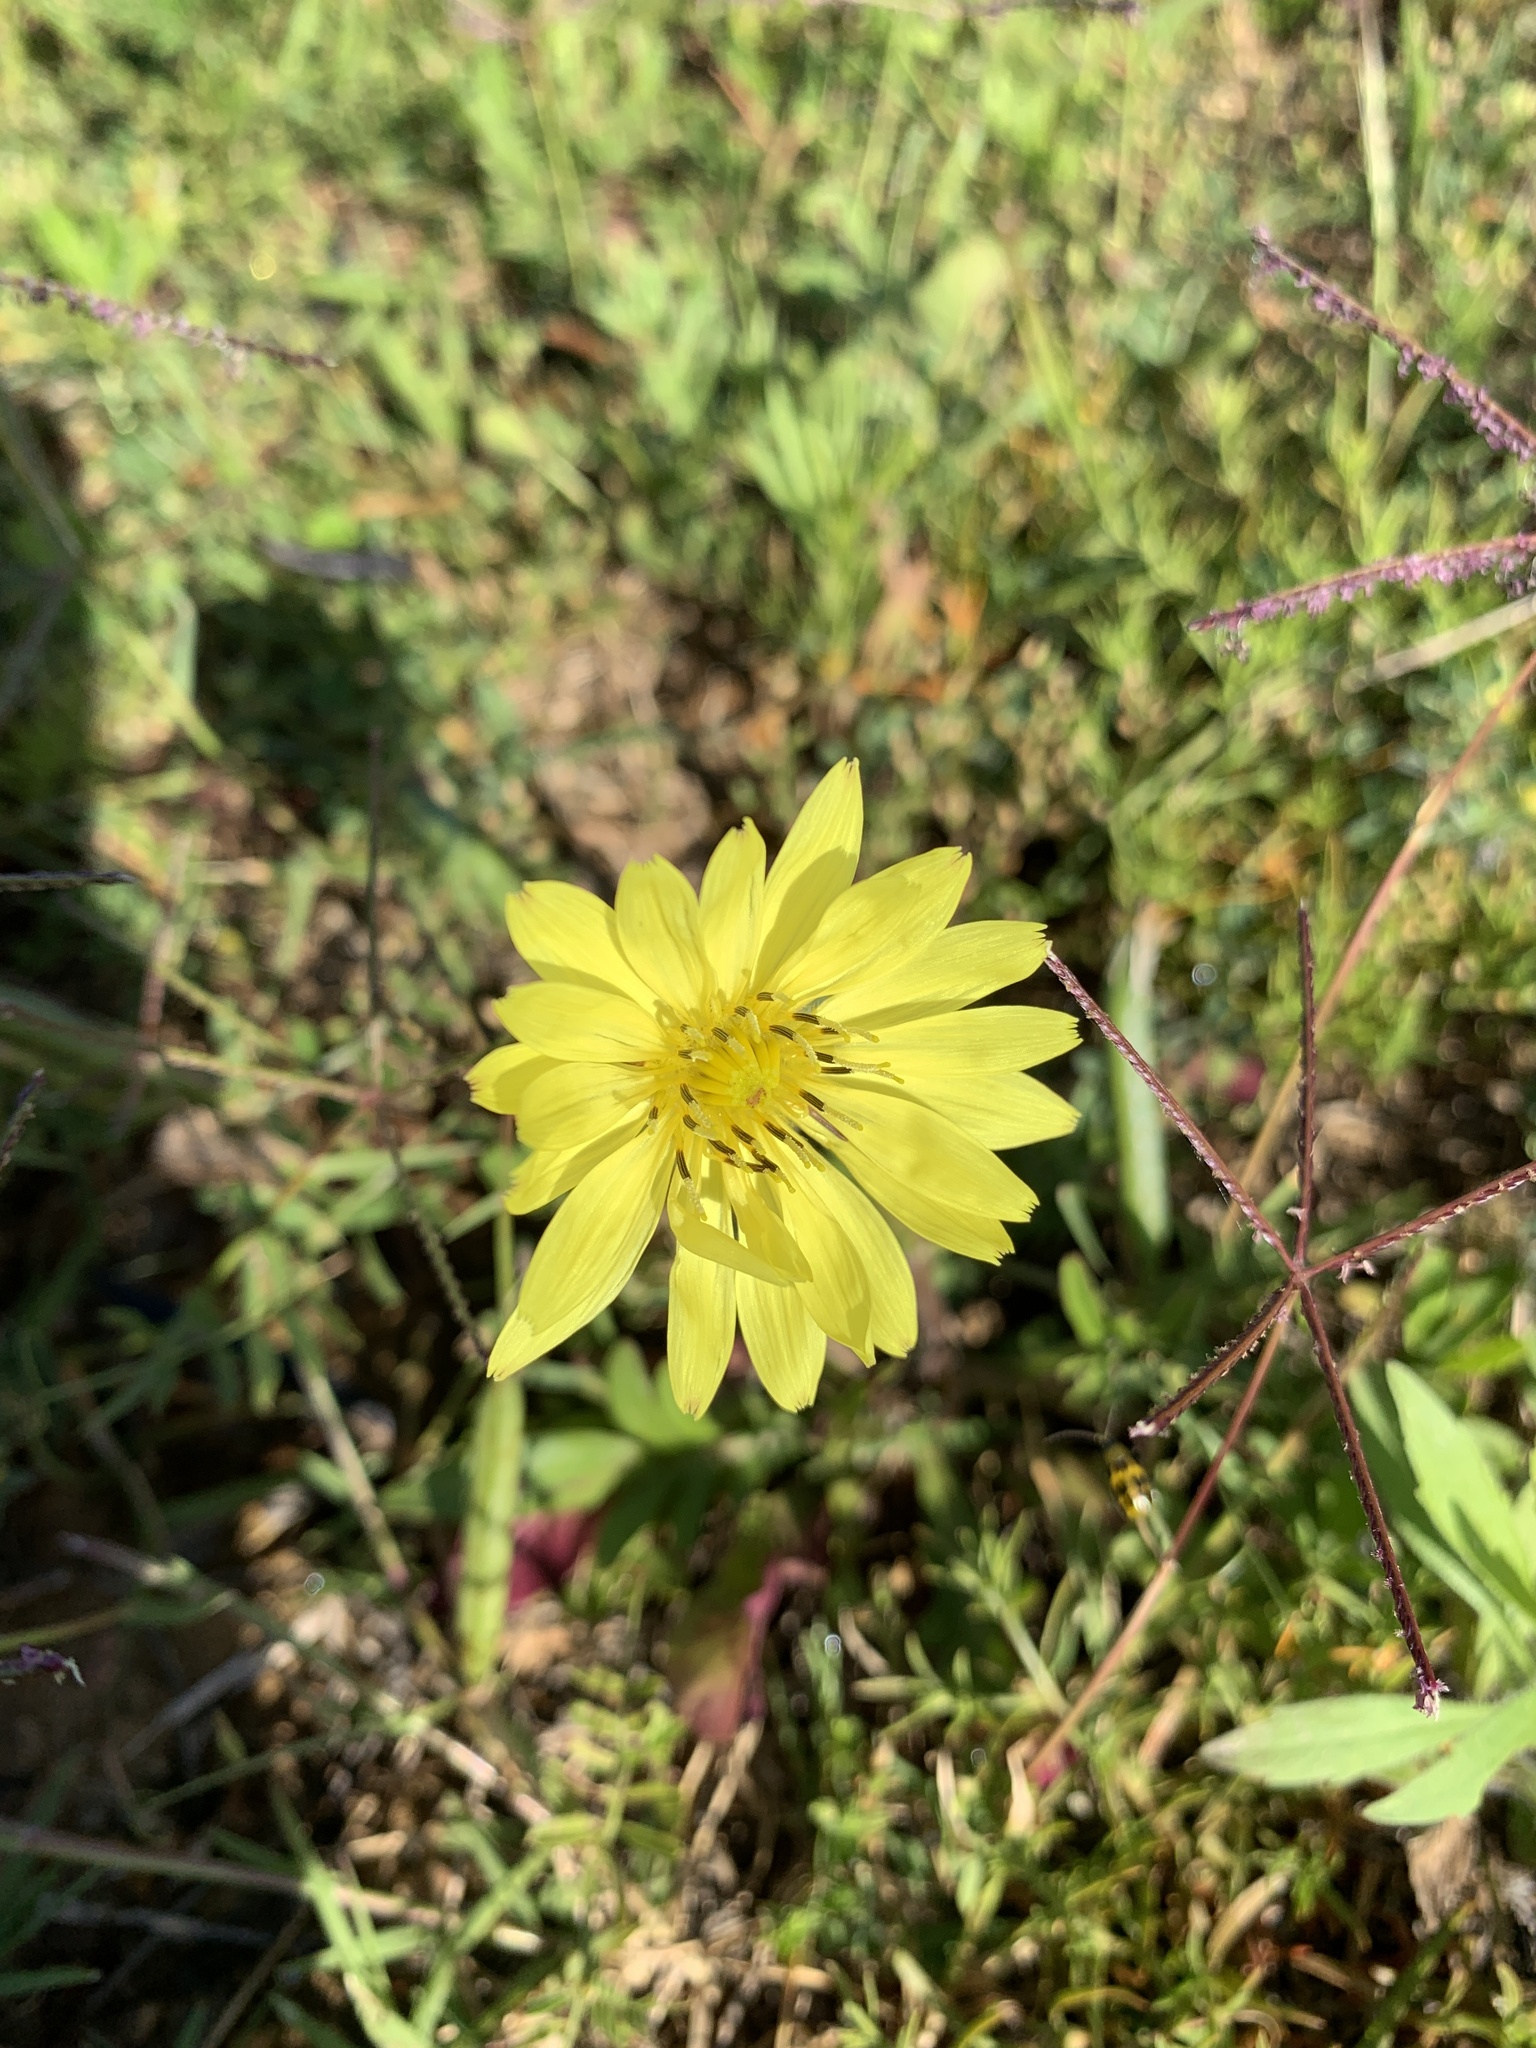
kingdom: Plantae
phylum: Tracheophyta
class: Magnoliopsida
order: Asterales
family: Asteraceae
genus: Pyrrhopappus
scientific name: Pyrrhopappus pauciflorus
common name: Texas false dandelion
